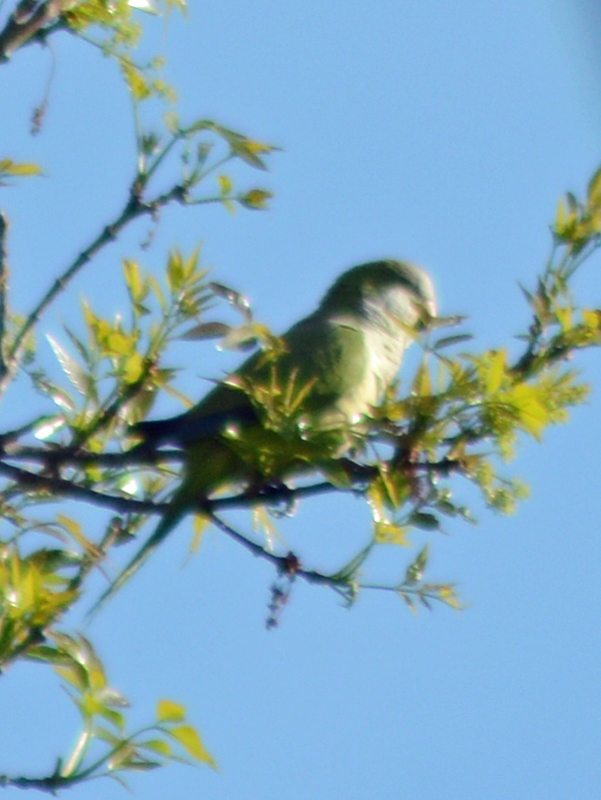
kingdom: Animalia
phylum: Chordata
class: Aves
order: Psittaciformes
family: Psittacidae
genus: Myiopsitta
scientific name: Myiopsitta monachus
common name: Monk parakeet
